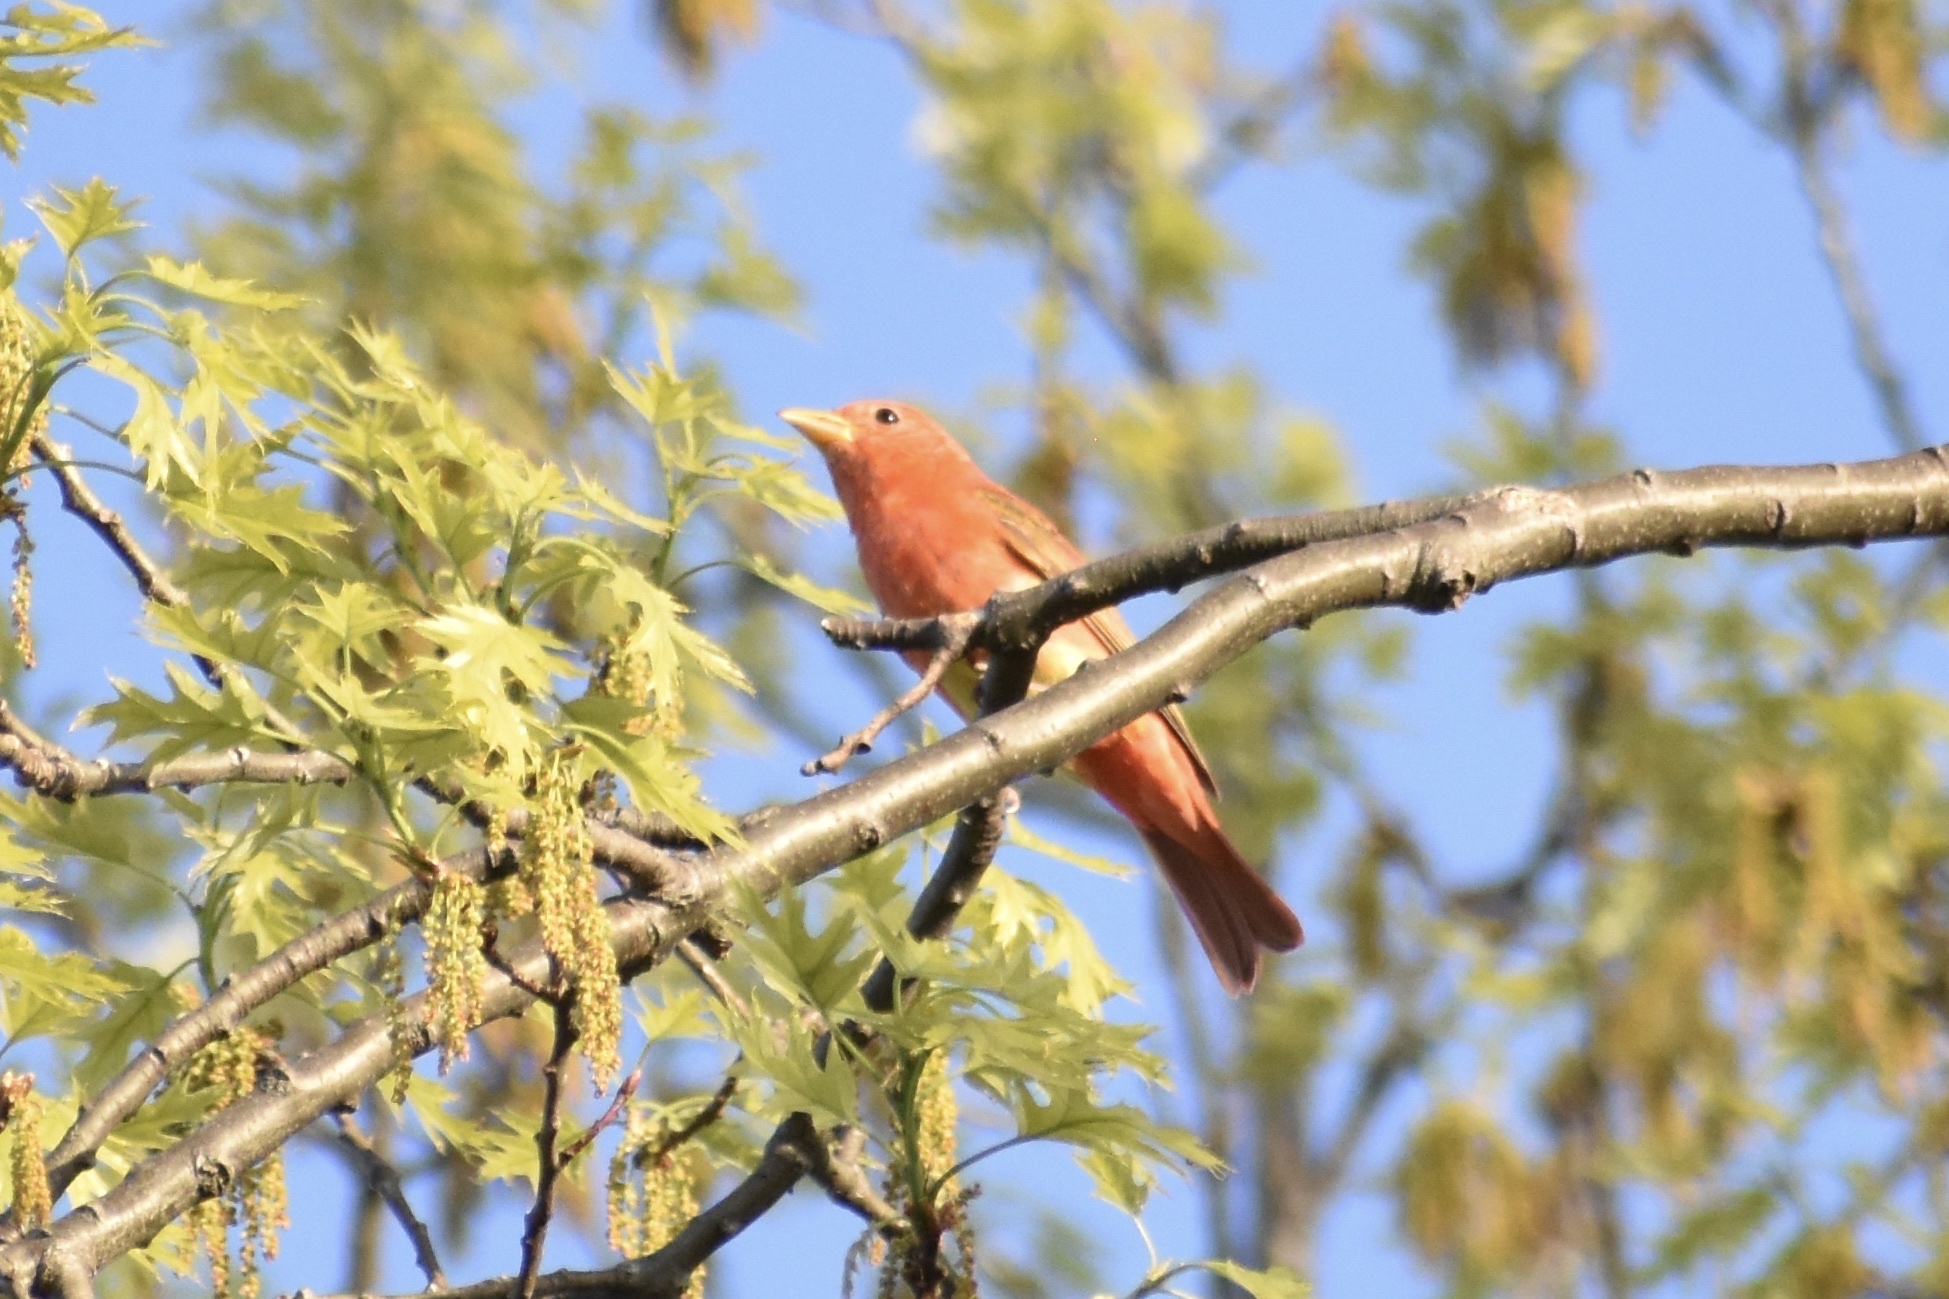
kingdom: Animalia
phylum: Chordata
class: Aves
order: Passeriformes
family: Cardinalidae
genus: Piranga
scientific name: Piranga rubra
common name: Summer tanager
